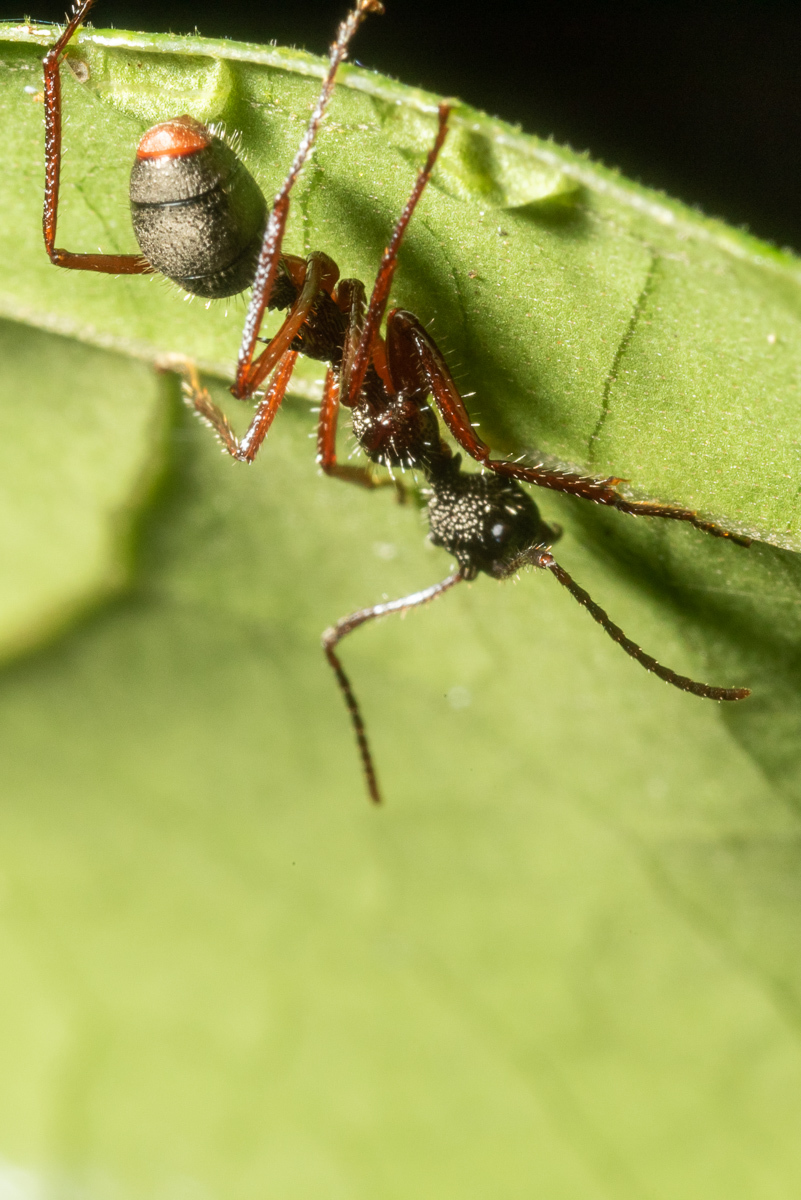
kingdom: Animalia
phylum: Arthropoda
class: Insecta
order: Hymenoptera
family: Formicidae
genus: Dolichoderus
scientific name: Dolichoderus attelaboides
